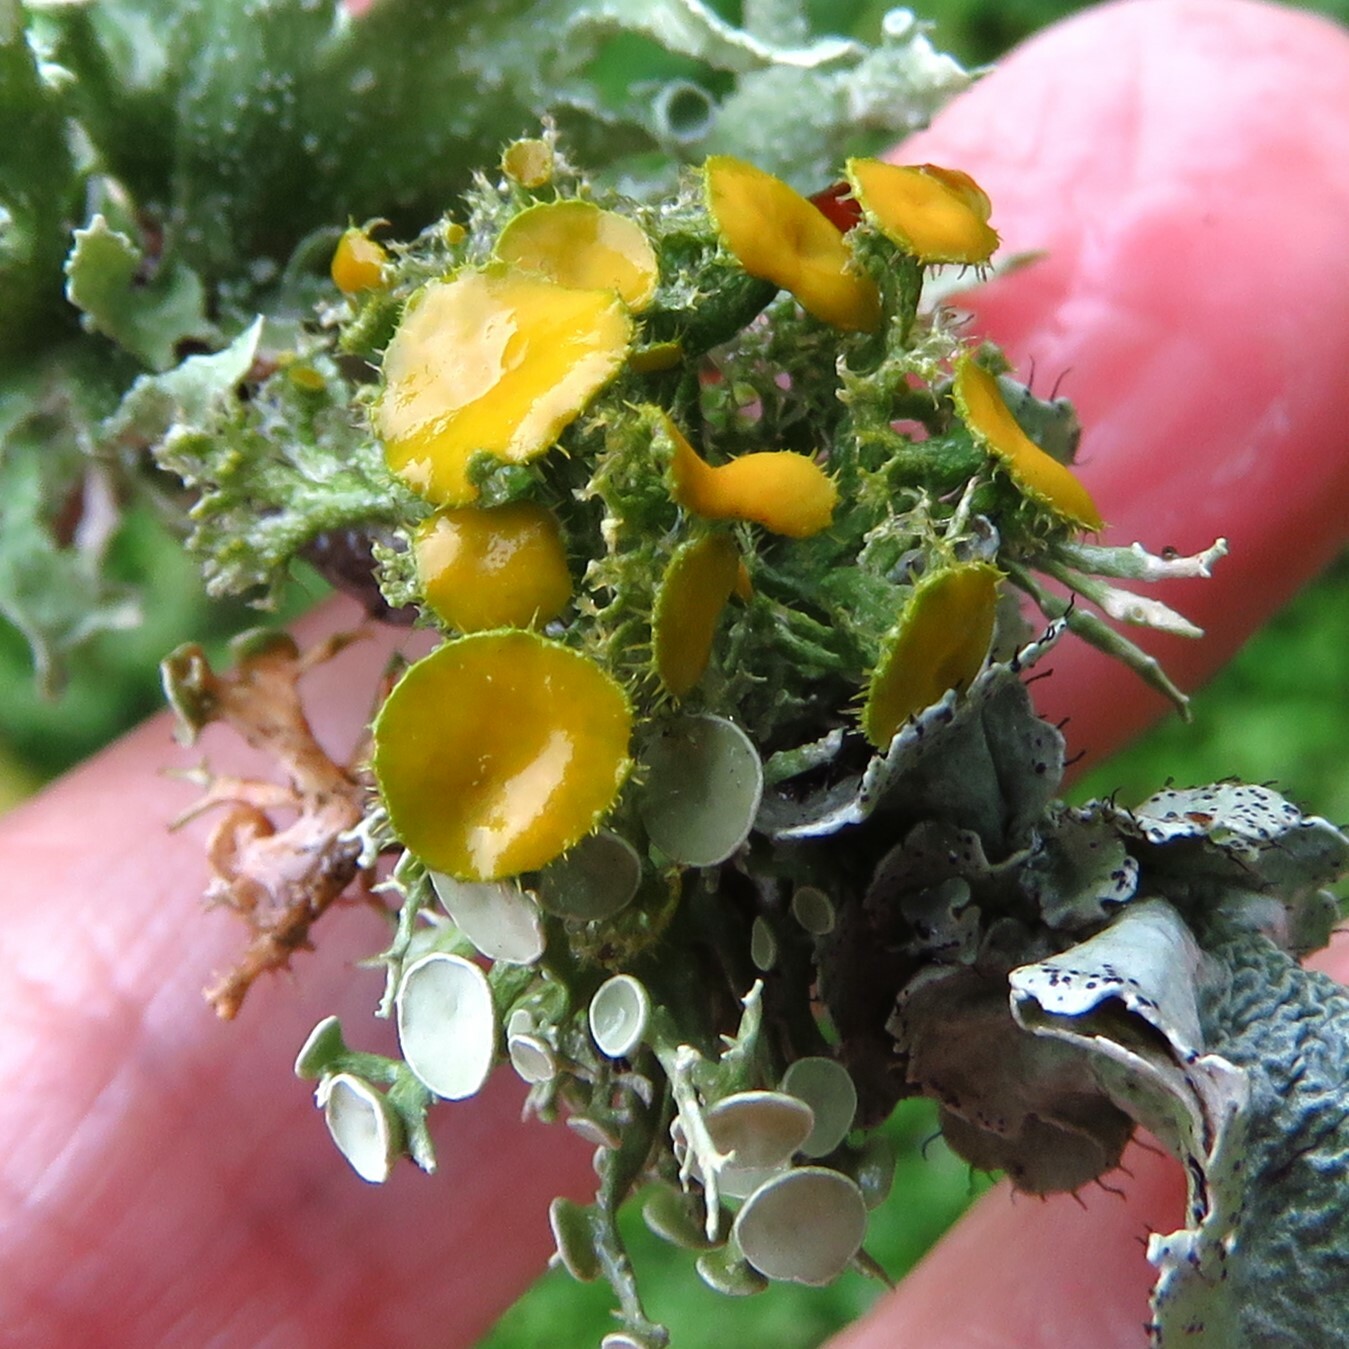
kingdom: Fungi
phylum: Ascomycota
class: Lecanoromycetes
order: Teloschistales
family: Teloschistaceae
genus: Niorma
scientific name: Niorma chrysophthalma
